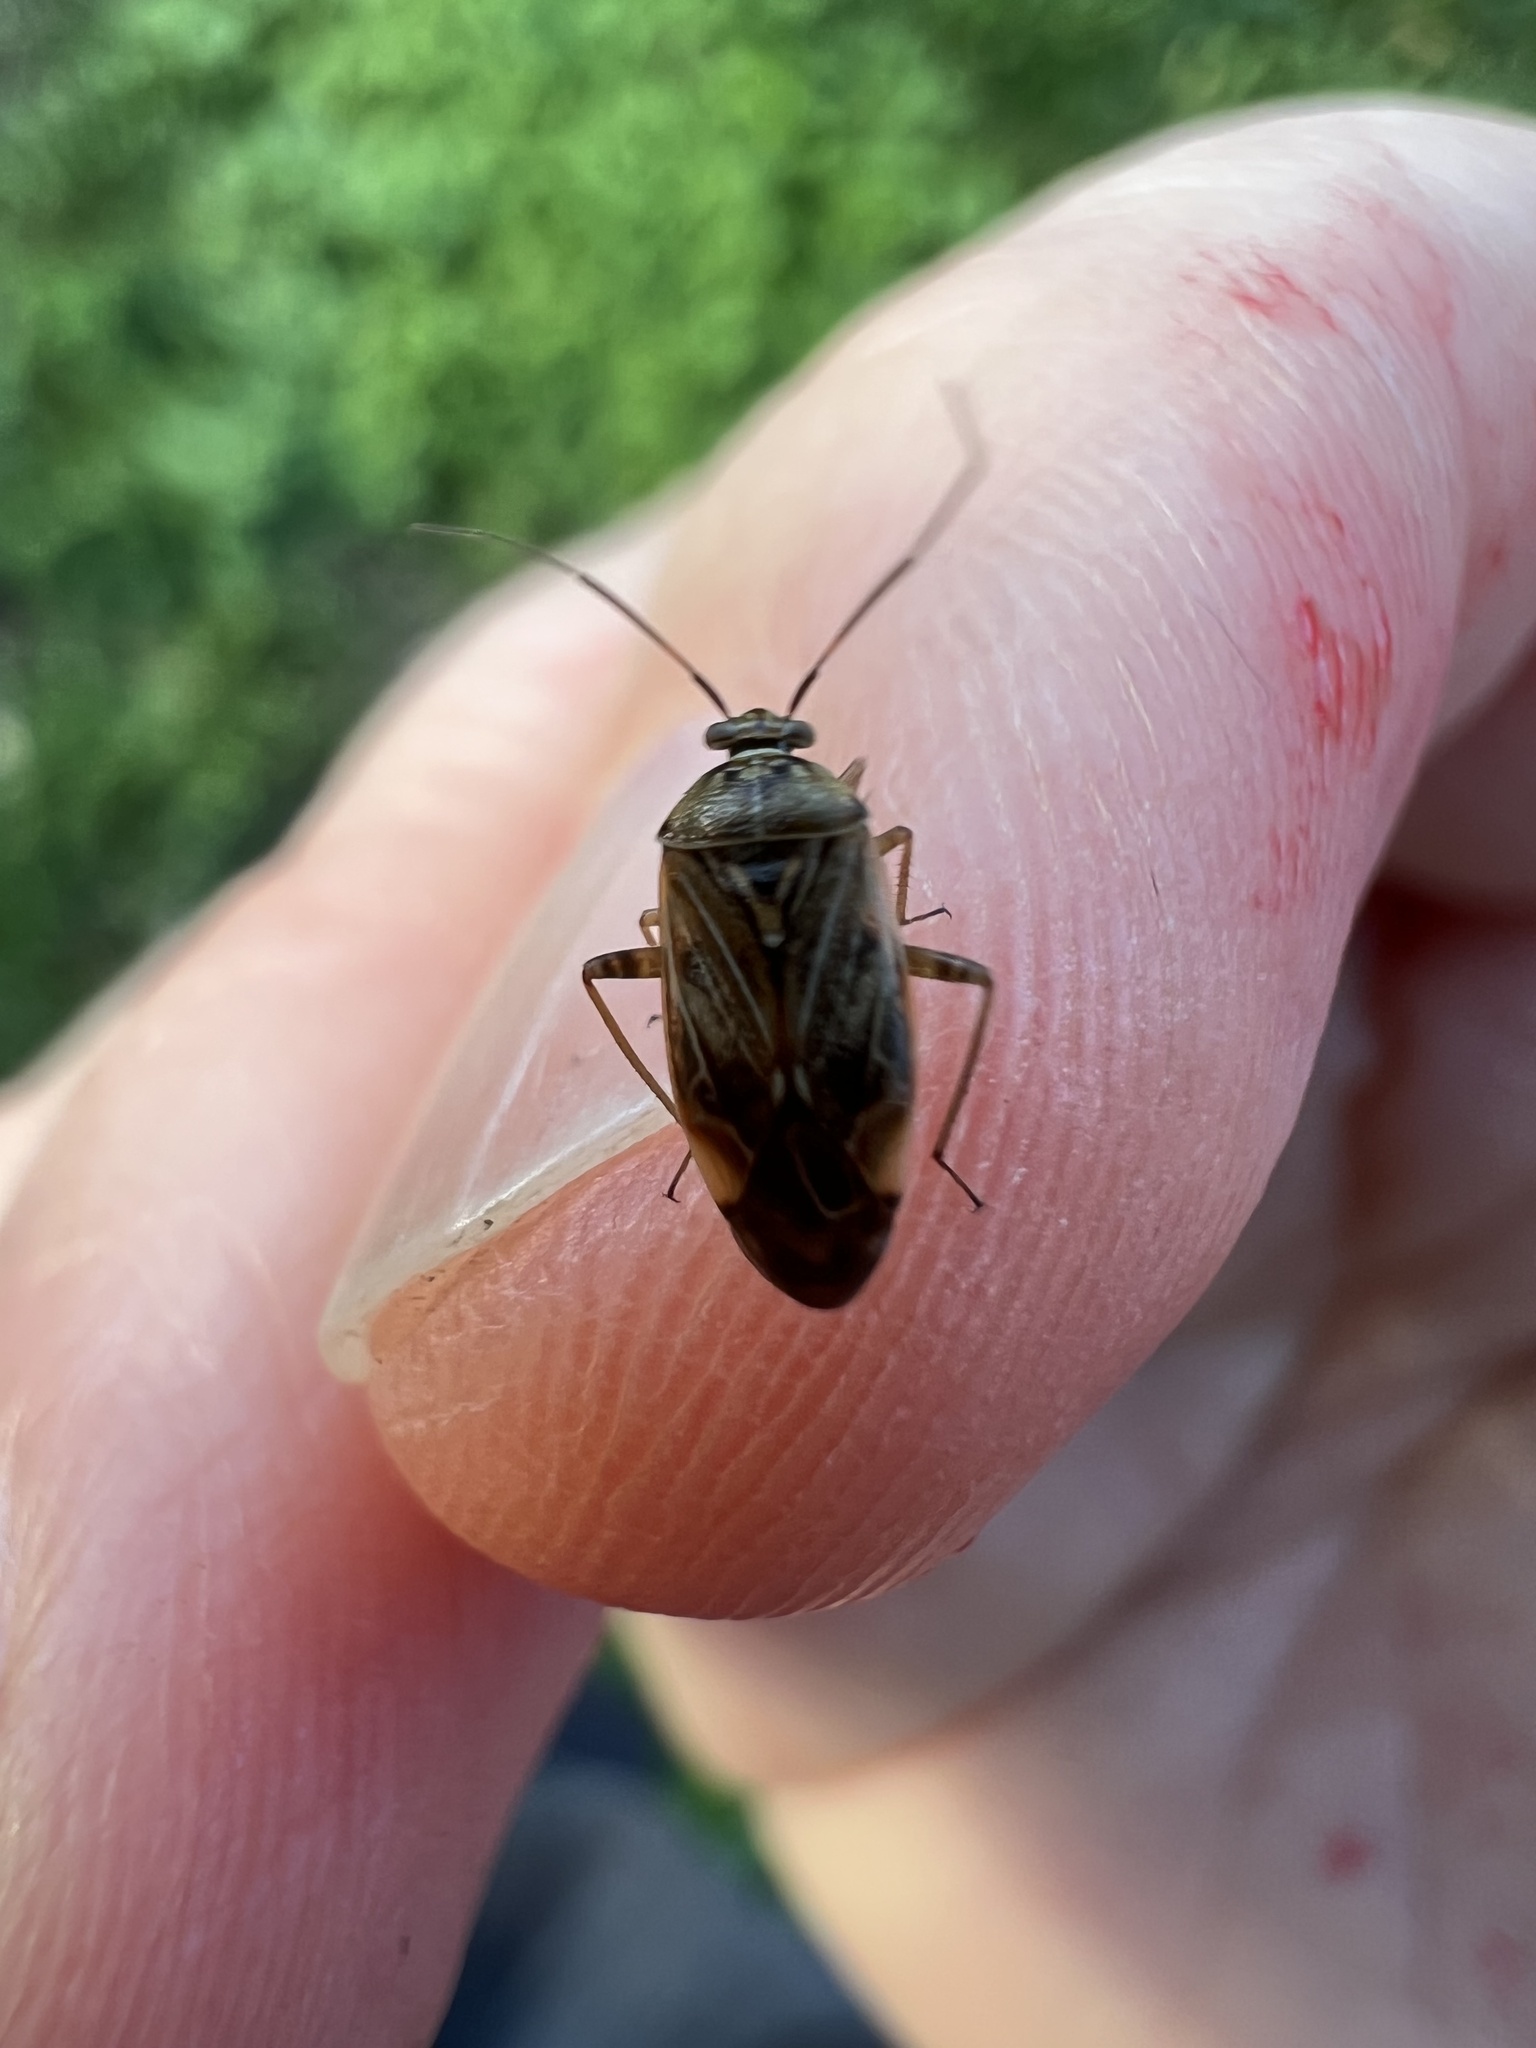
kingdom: Animalia
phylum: Arthropoda
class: Insecta
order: Hemiptera
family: Miridae
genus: Lygus
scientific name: Lygus lineolaris
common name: North american tarnished plant bug
